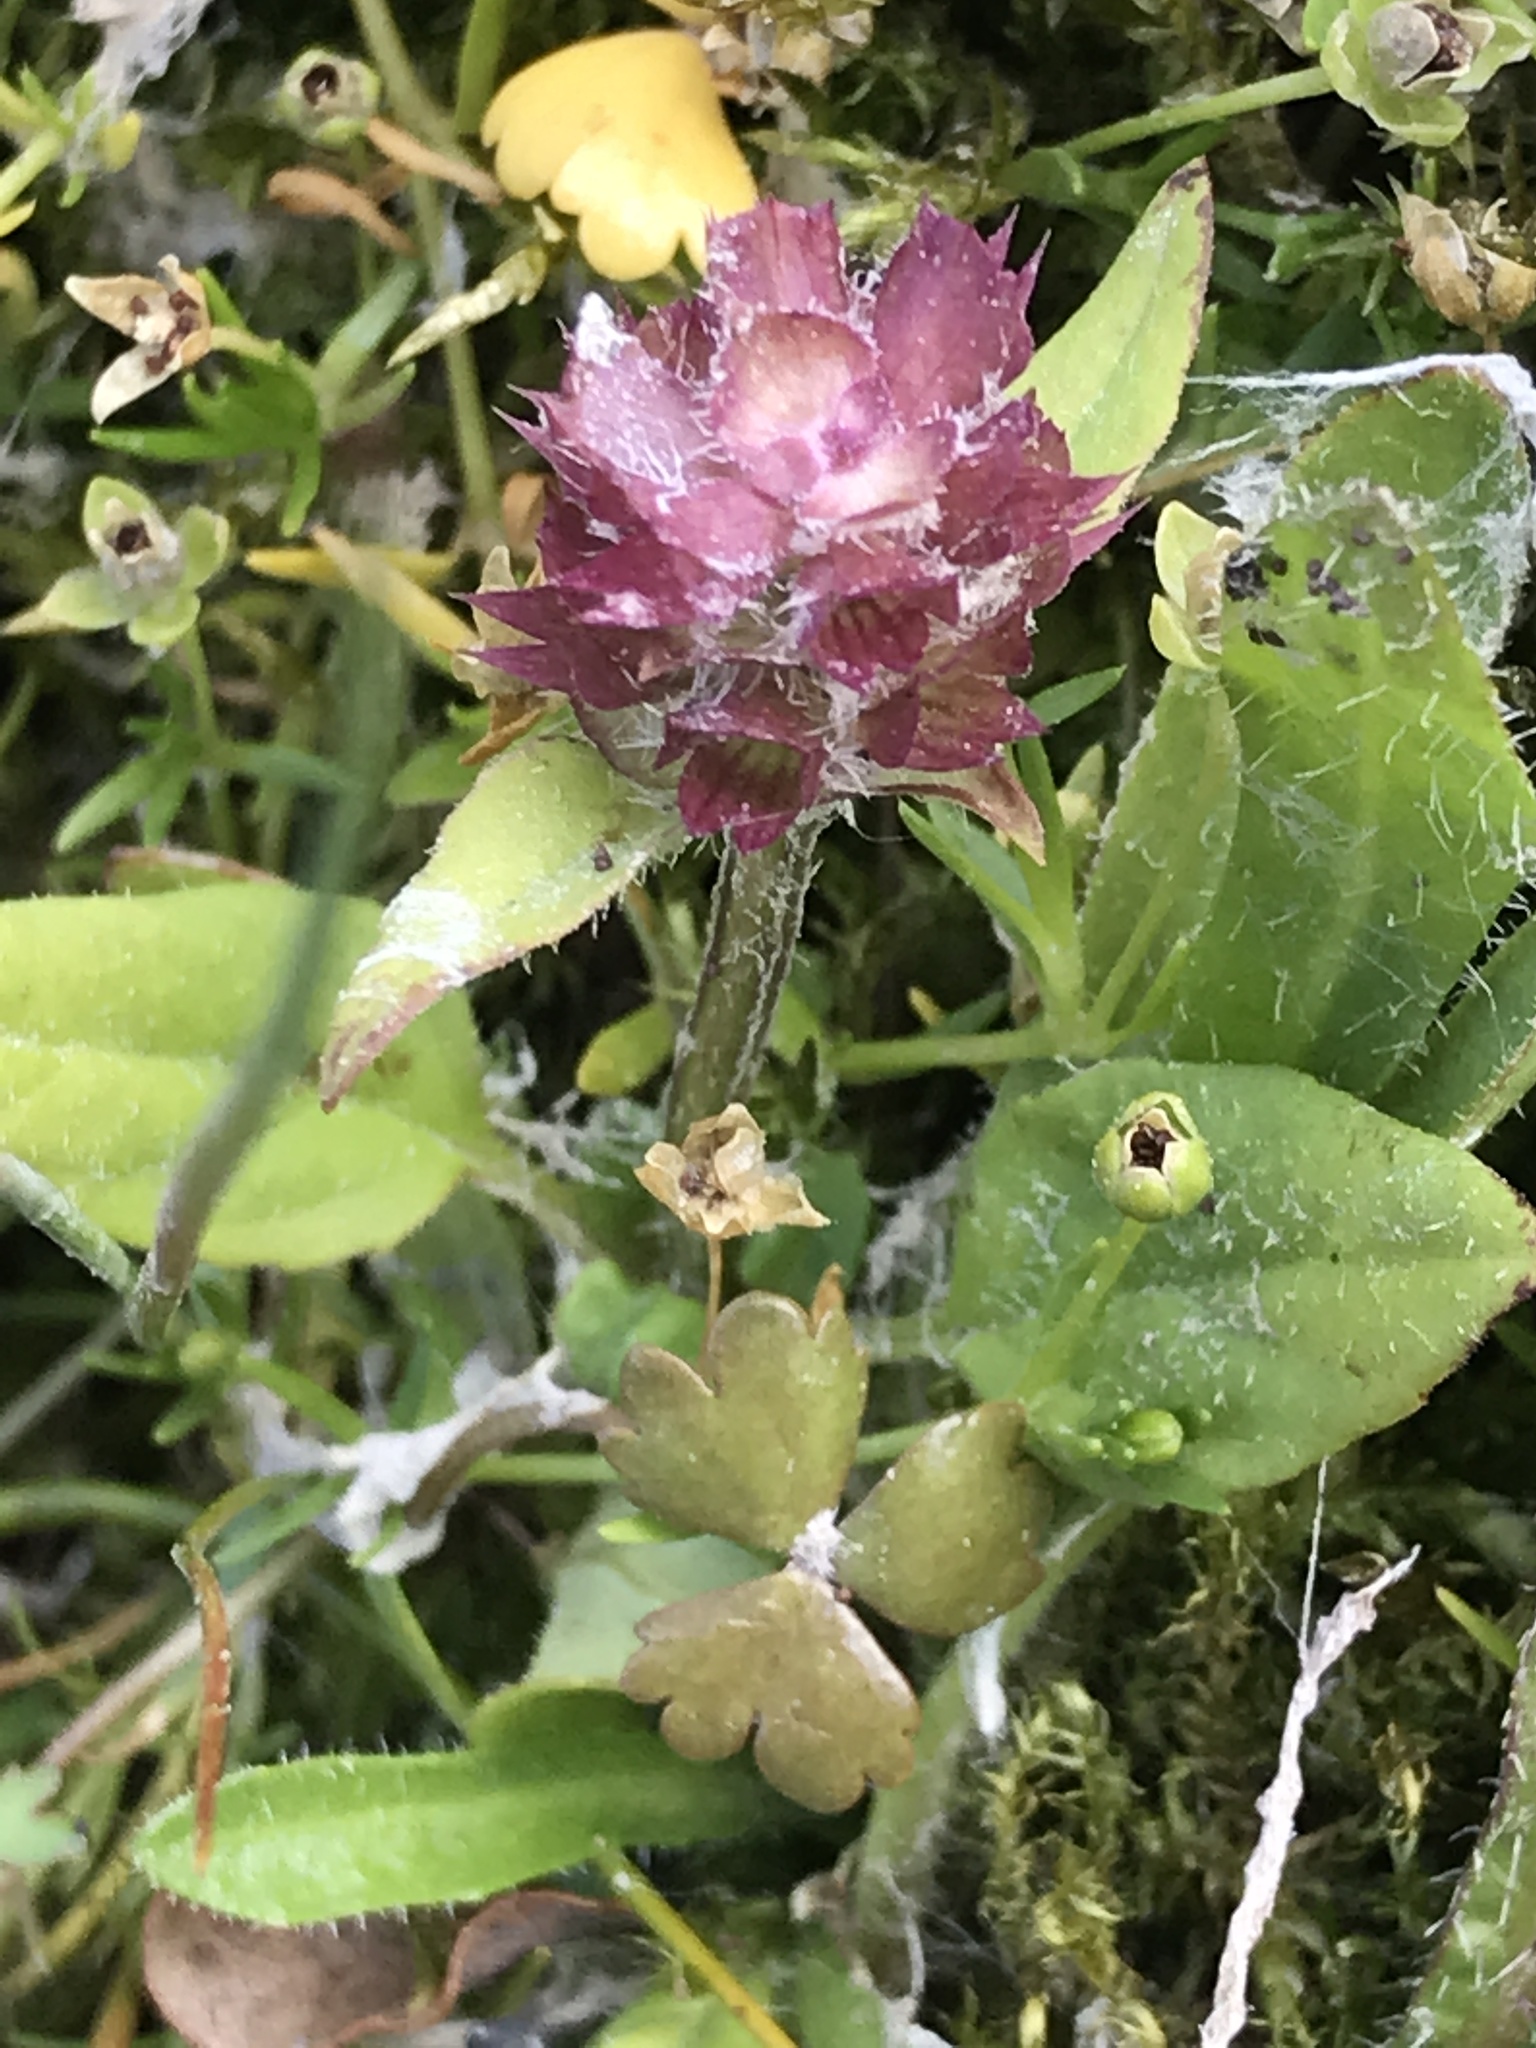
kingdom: Plantae
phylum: Tracheophyta
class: Magnoliopsida
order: Lamiales
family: Lamiaceae
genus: Prunella
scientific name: Prunella vulgaris
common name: Heal-all
